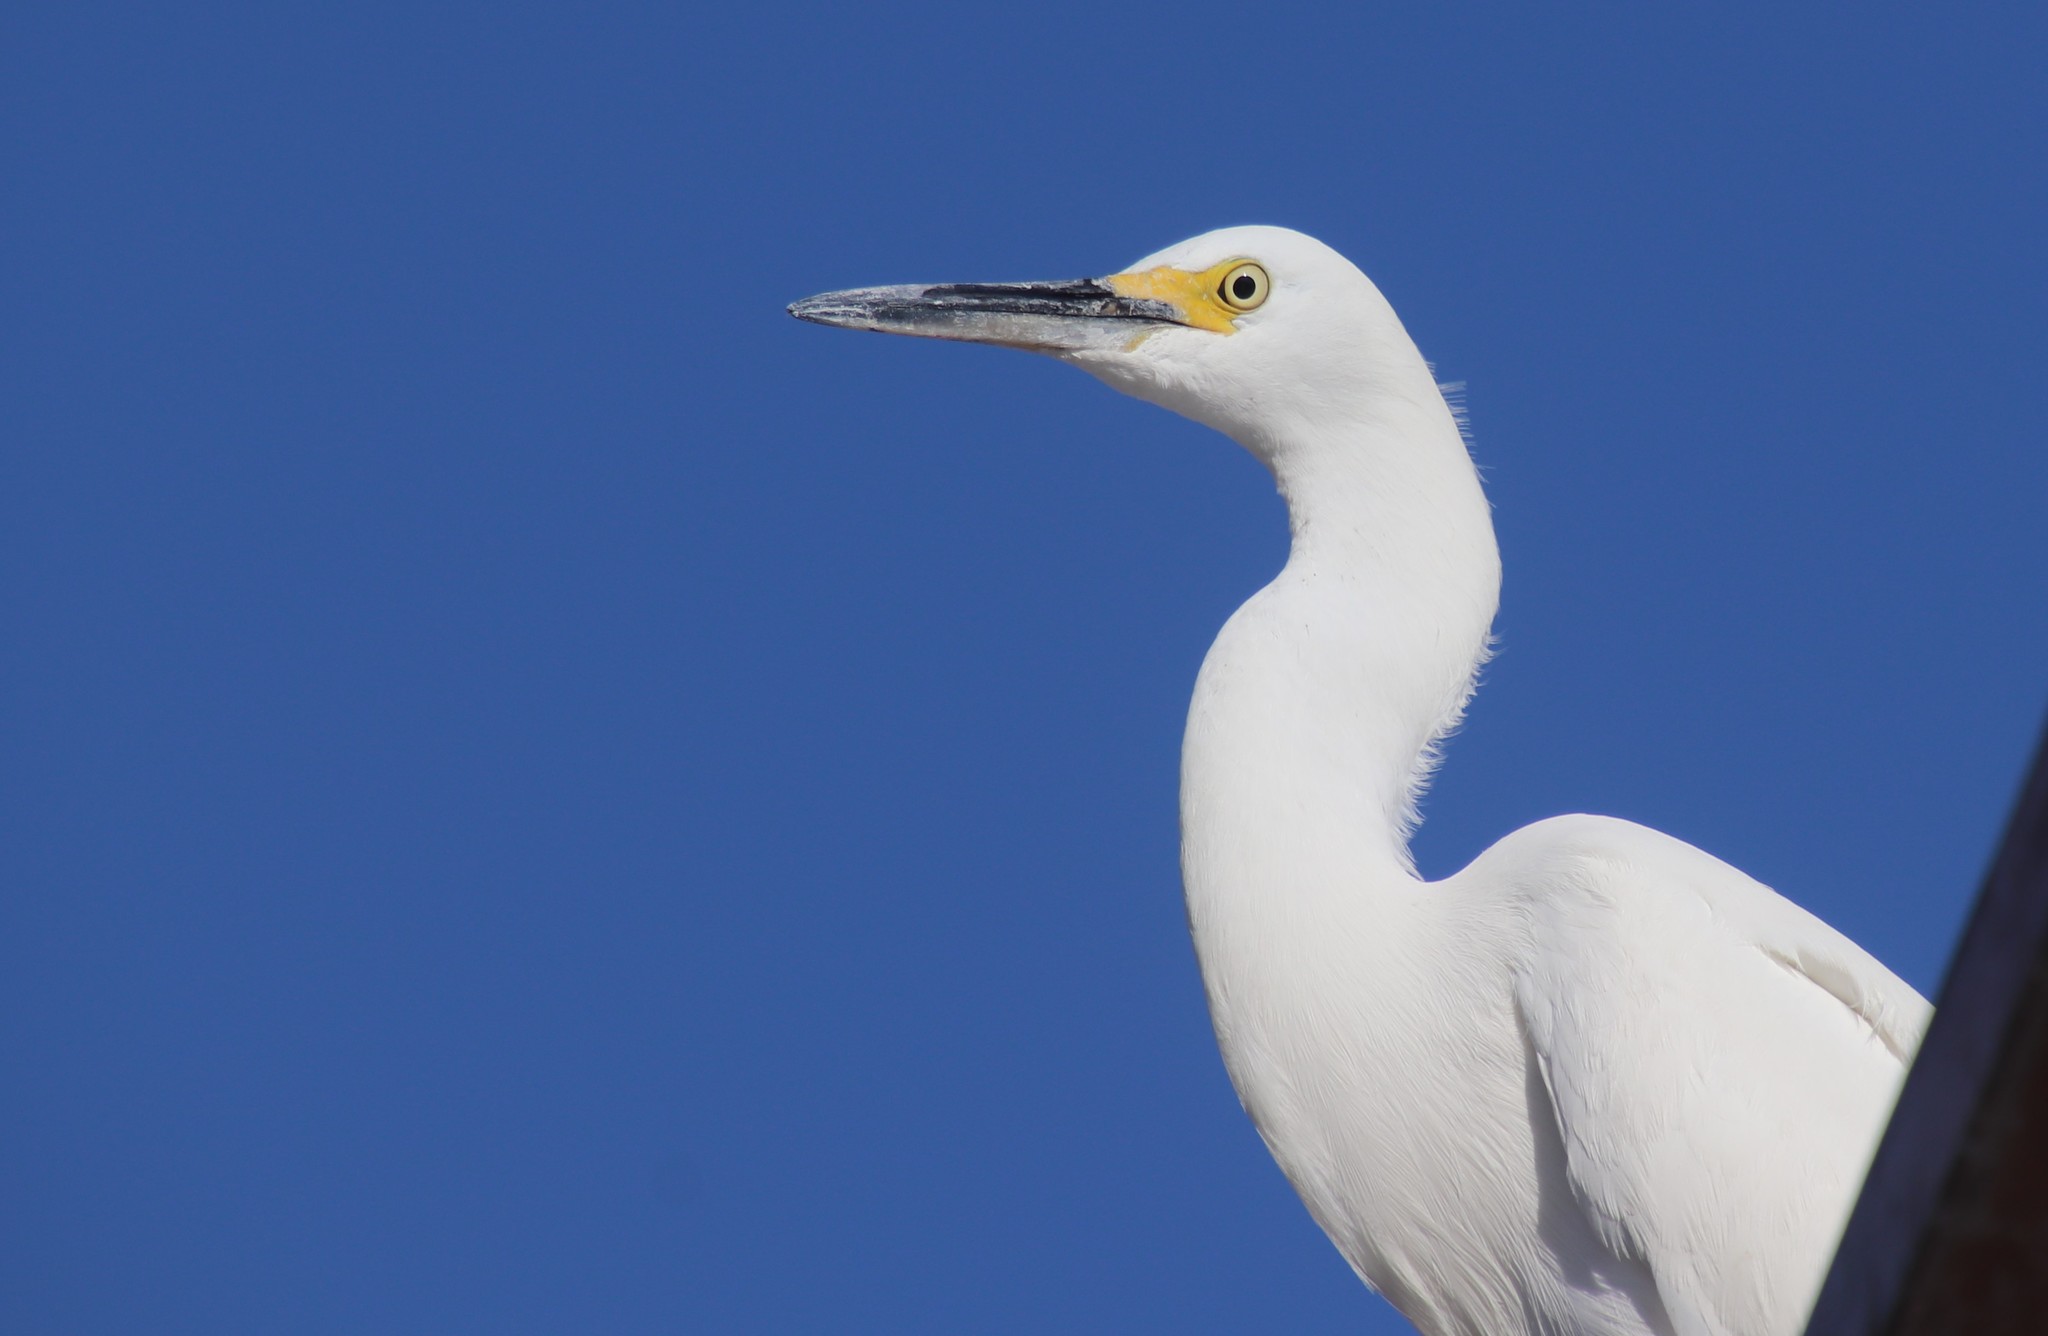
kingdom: Animalia
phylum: Chordata
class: Aves
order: Pelecaniformes
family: Ardeidae
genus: Egretta
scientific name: Egretta thula
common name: Snowy egret
